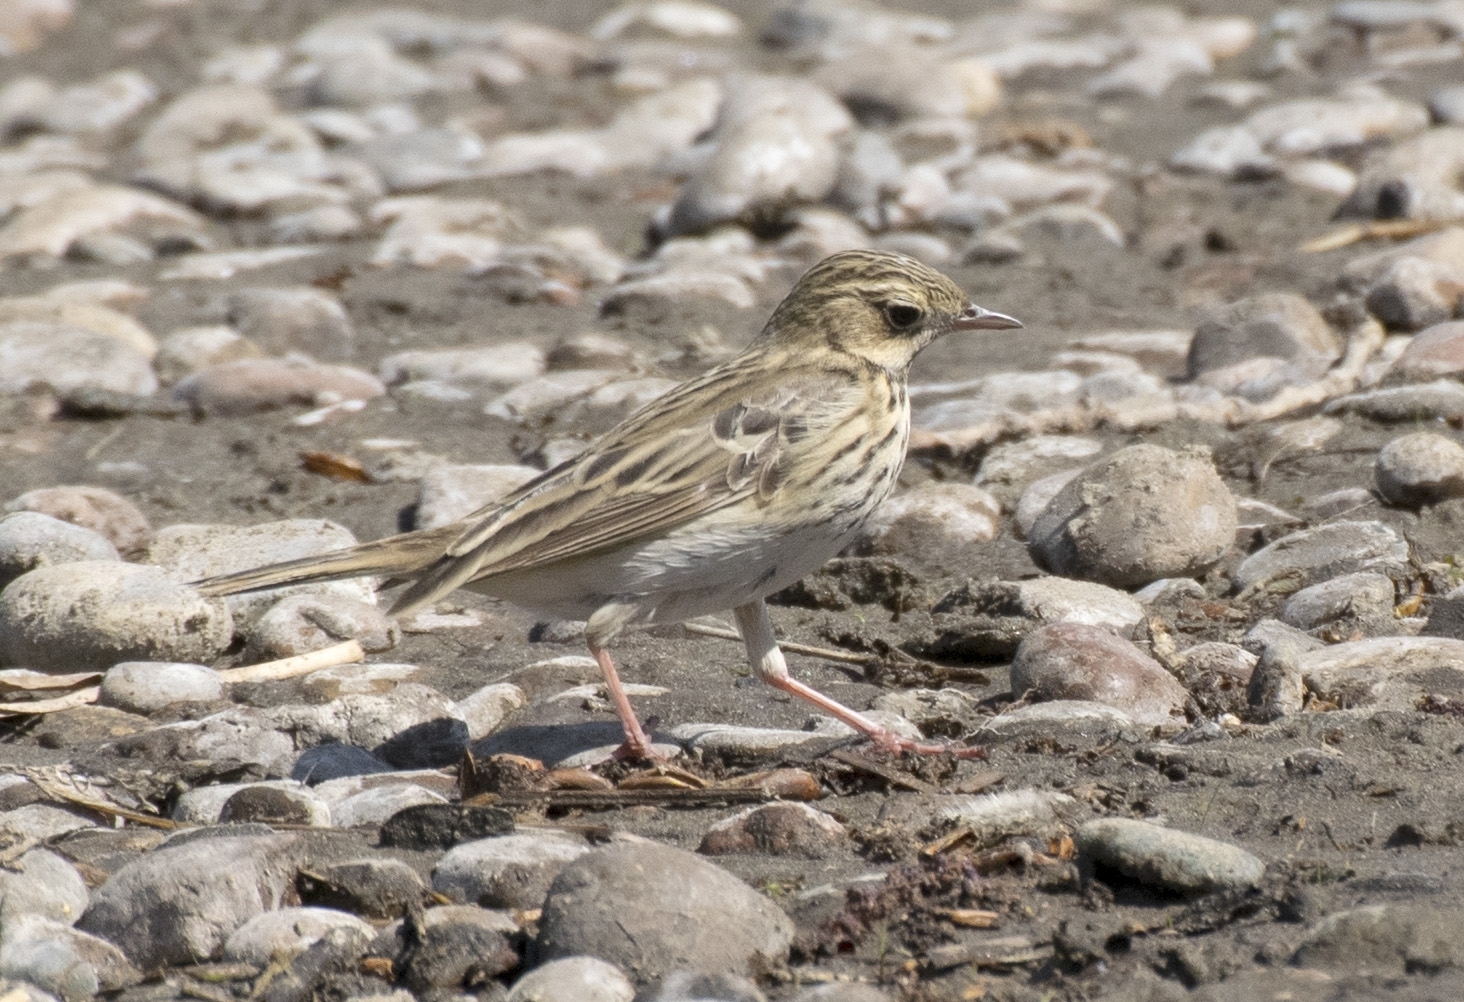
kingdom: Animalia
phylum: Chordata
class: Aves
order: Passeriformes
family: Motacillidae
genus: Anthus
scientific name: Anthus trivialis
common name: Tree pipit
